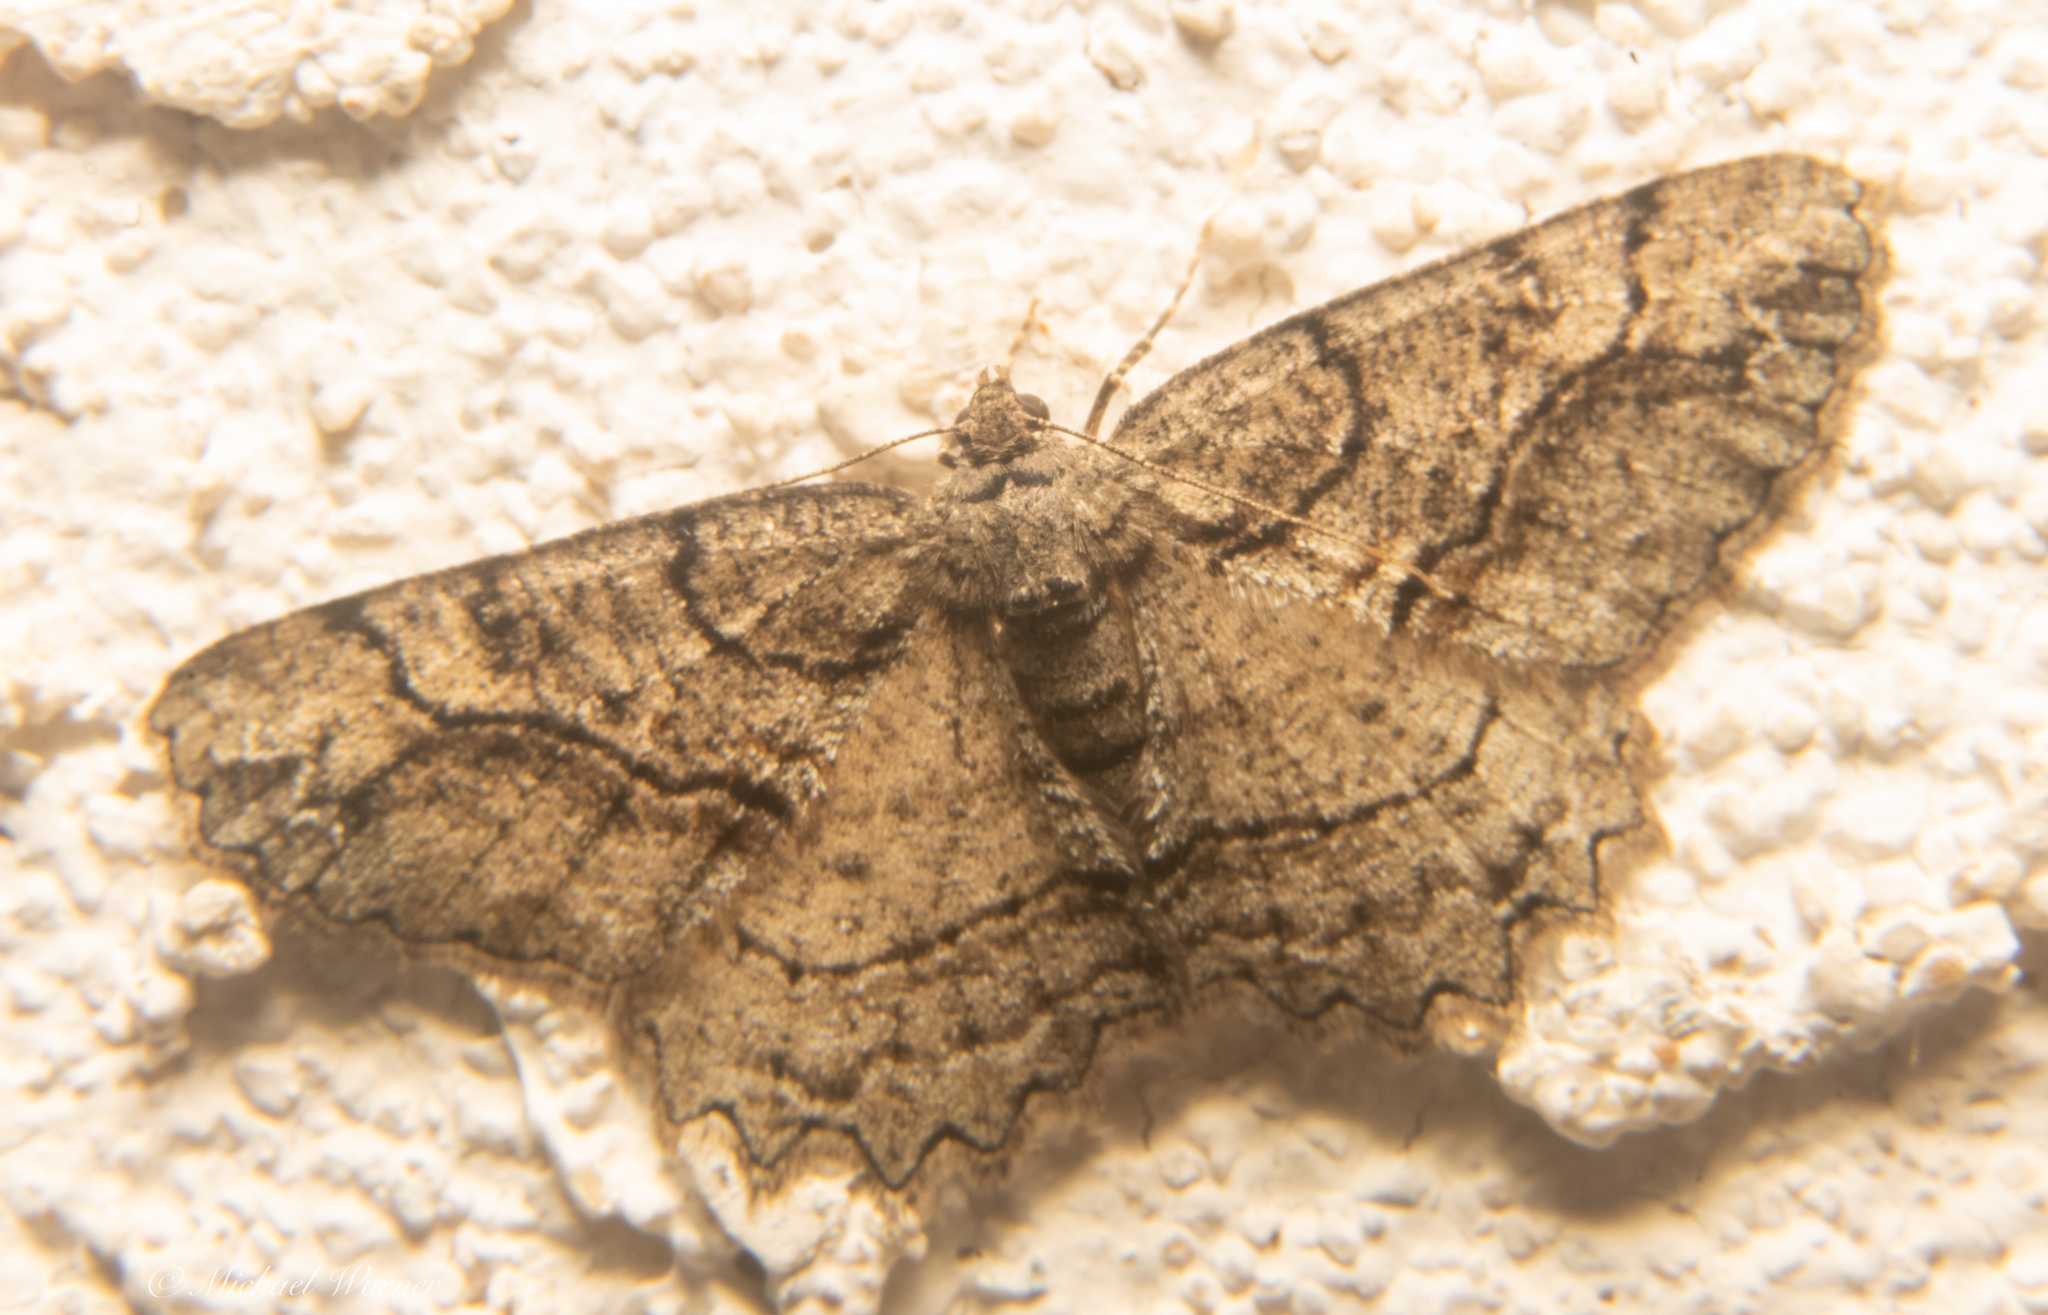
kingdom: Animalia
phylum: Arthropoda
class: Insecta
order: Lepidoptera
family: Geometridae
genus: Neoalcis
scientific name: Neoalcis californiaria
